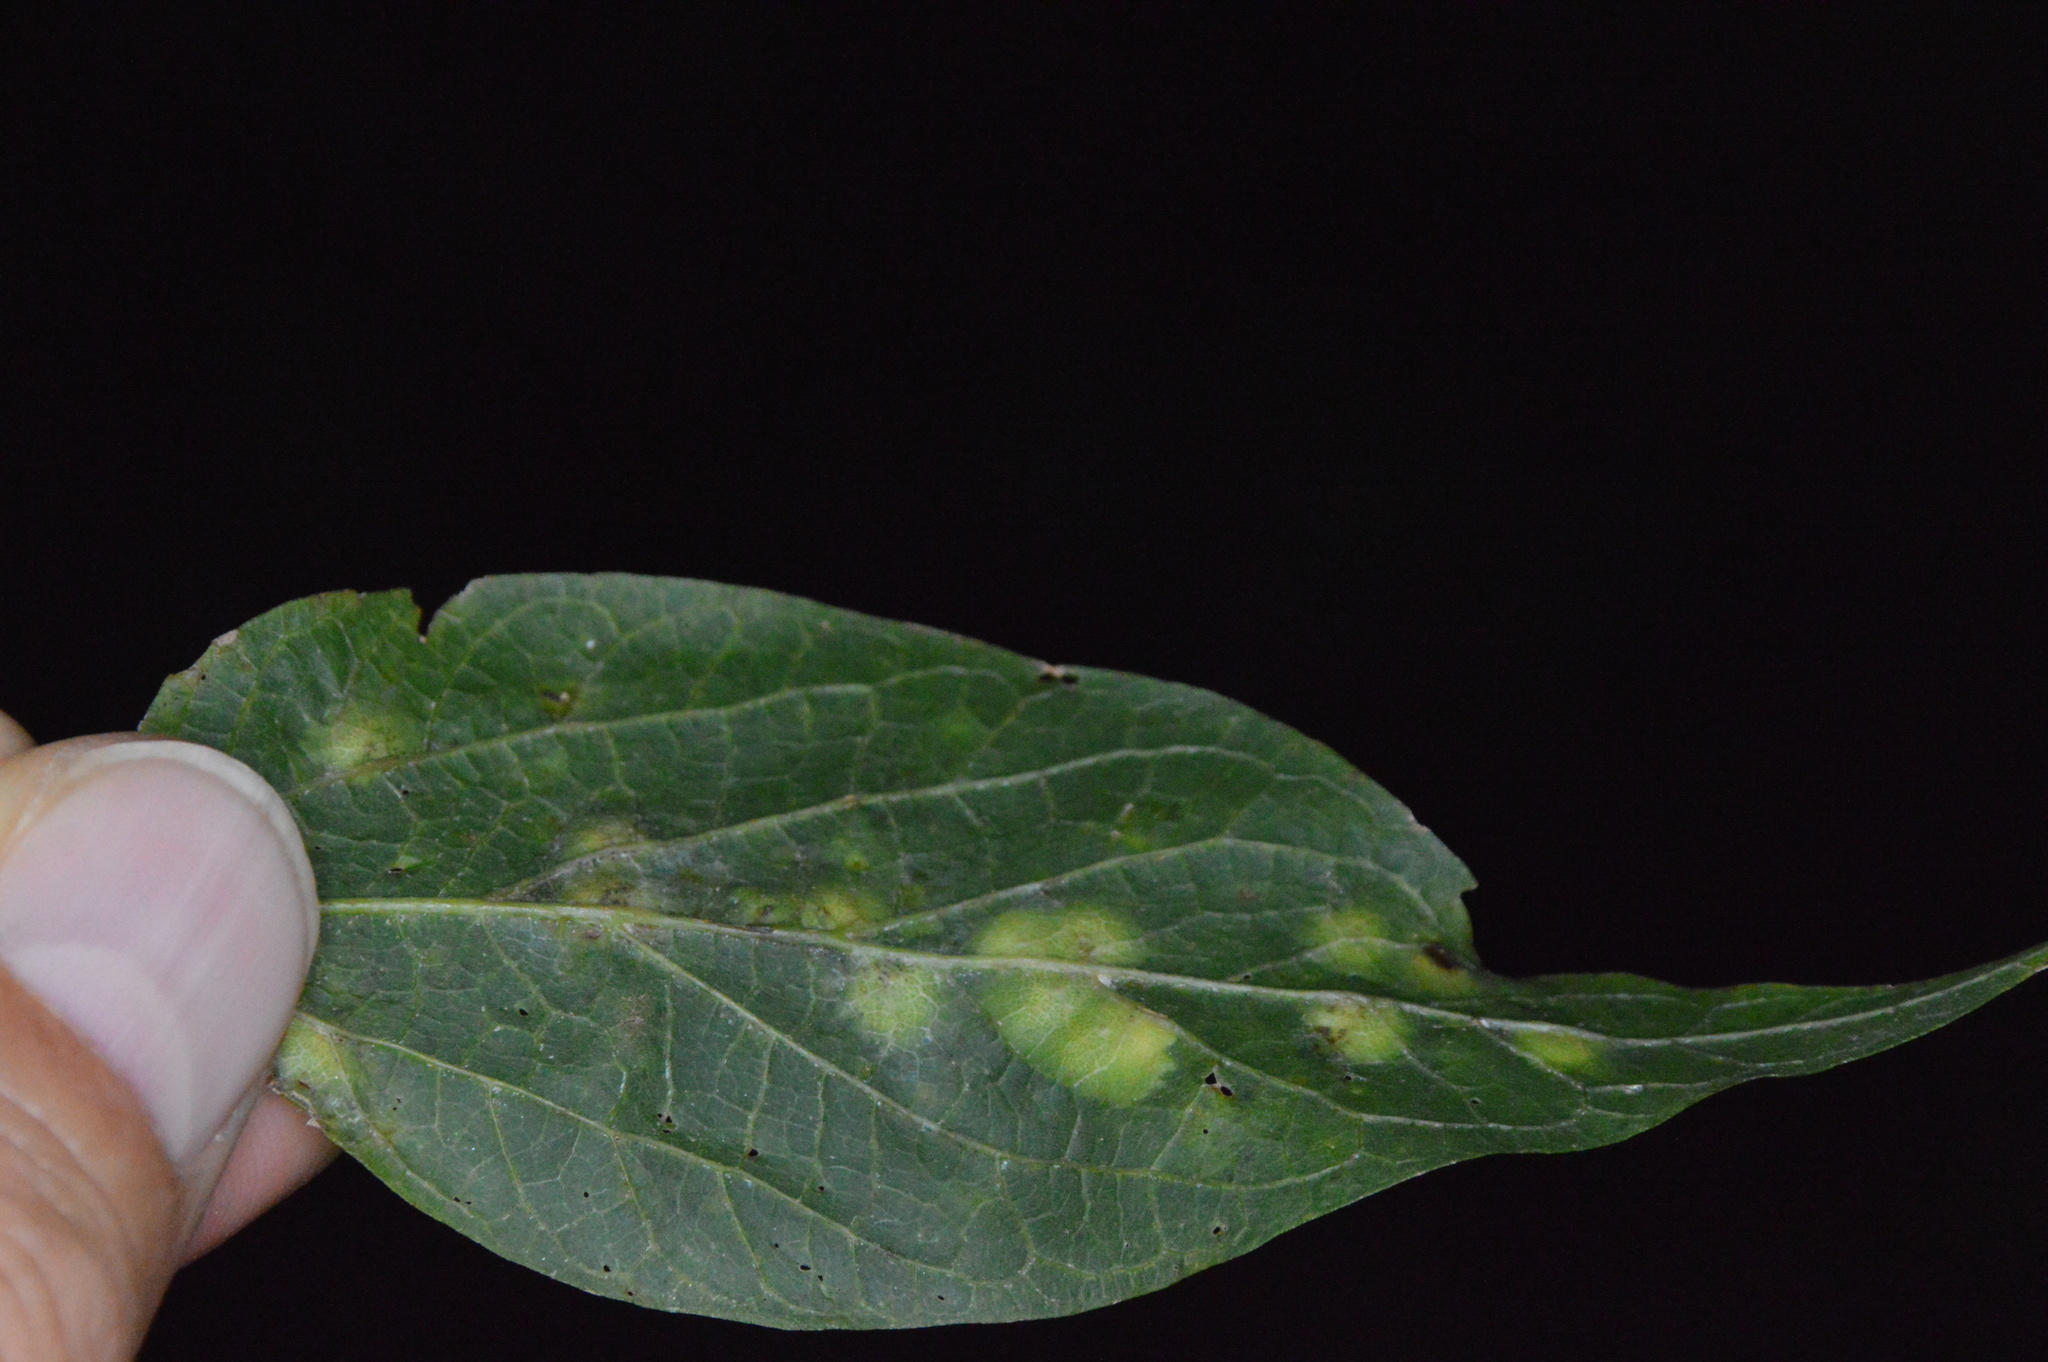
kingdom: Animalia
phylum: Arthropoda
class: Insecta
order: Hemiptera
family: Aphalaridae
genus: Pachypsylla
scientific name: Pachypsylla celtidisvesicula
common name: Hackberry blister gall psyllid
